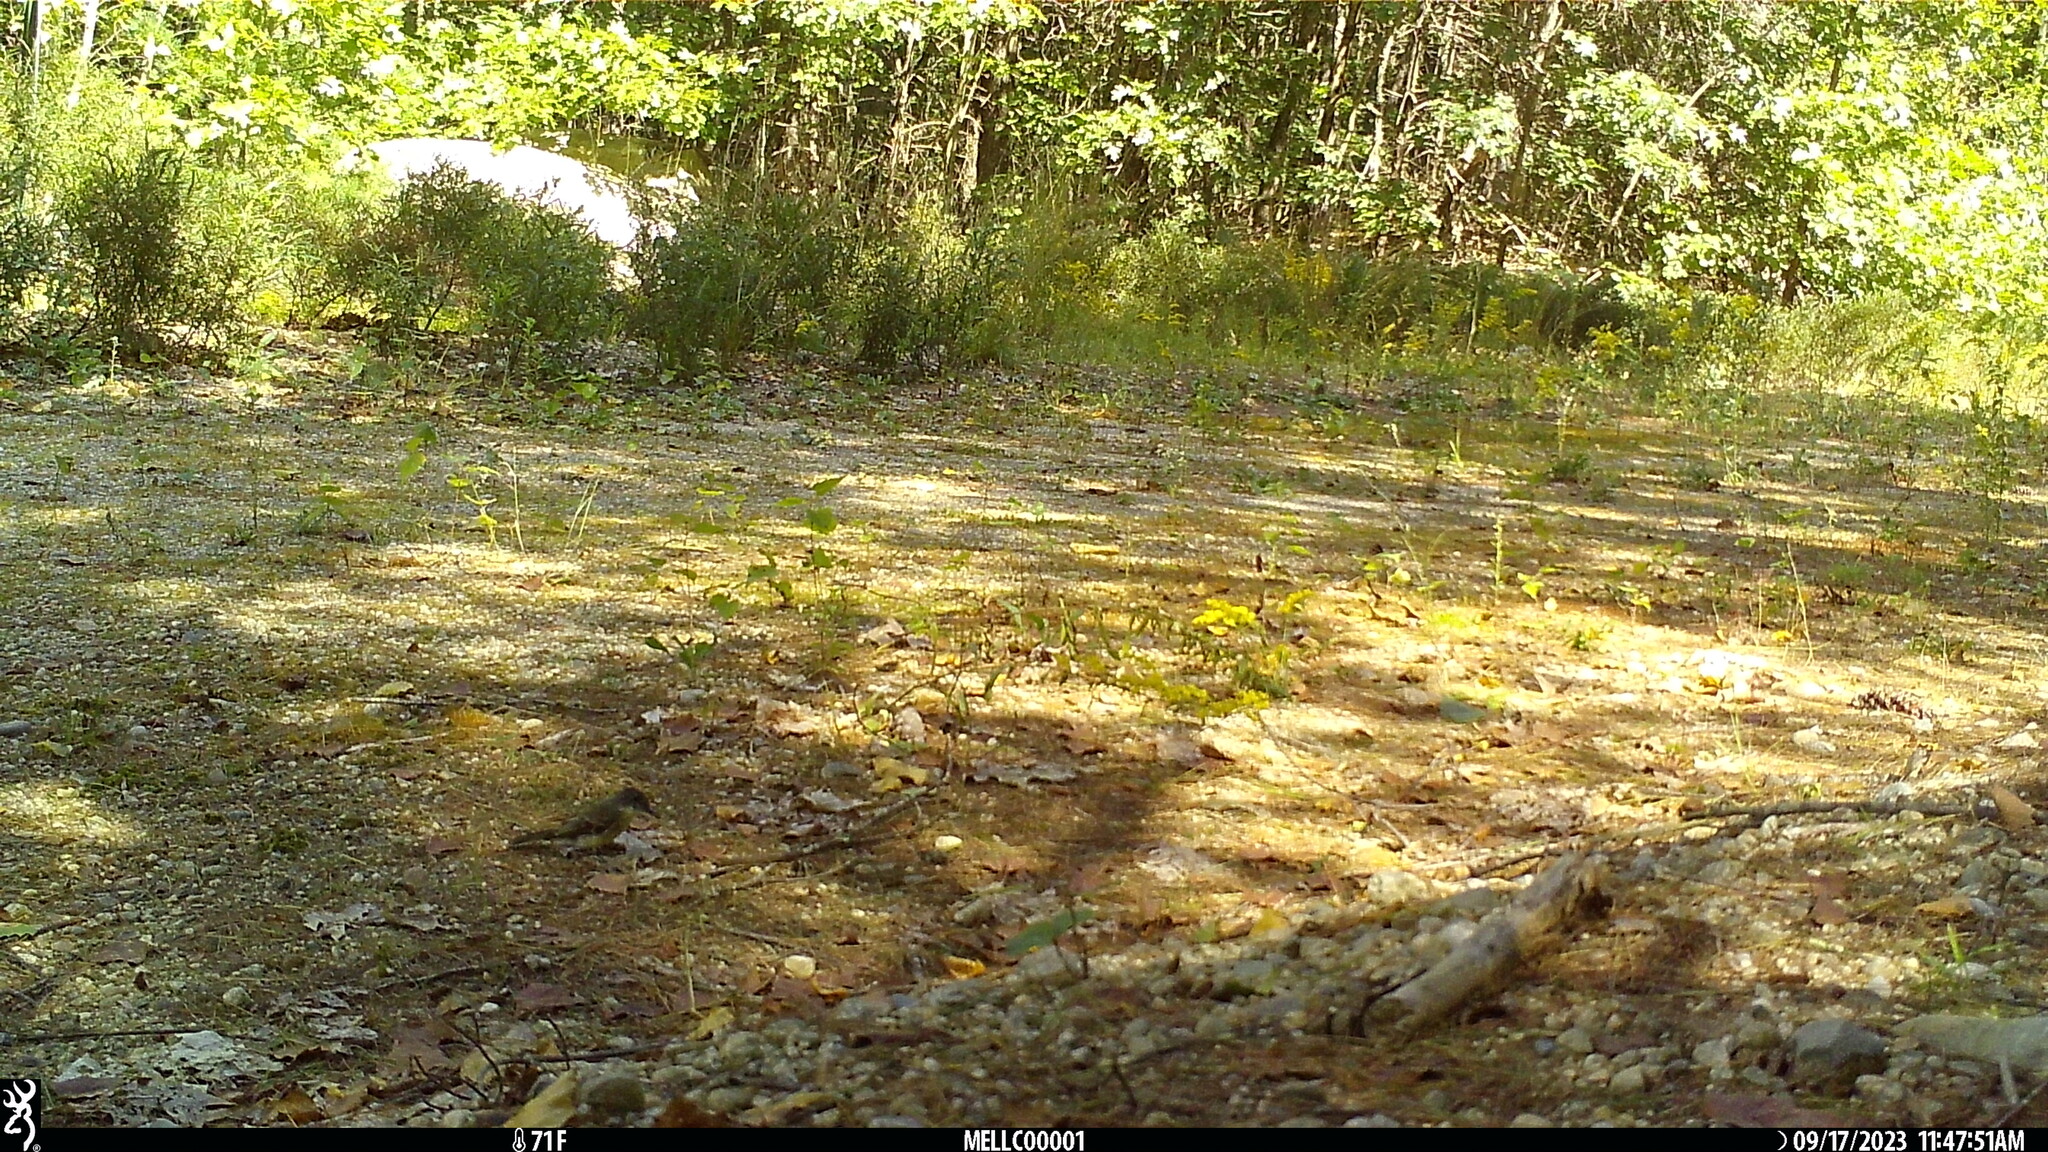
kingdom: Animalia
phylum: Chordata
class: Aves
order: Passeriformes
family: Tyrannidae
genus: Sayornis
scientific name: Sayornis phoebe
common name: Eastern phoebe
